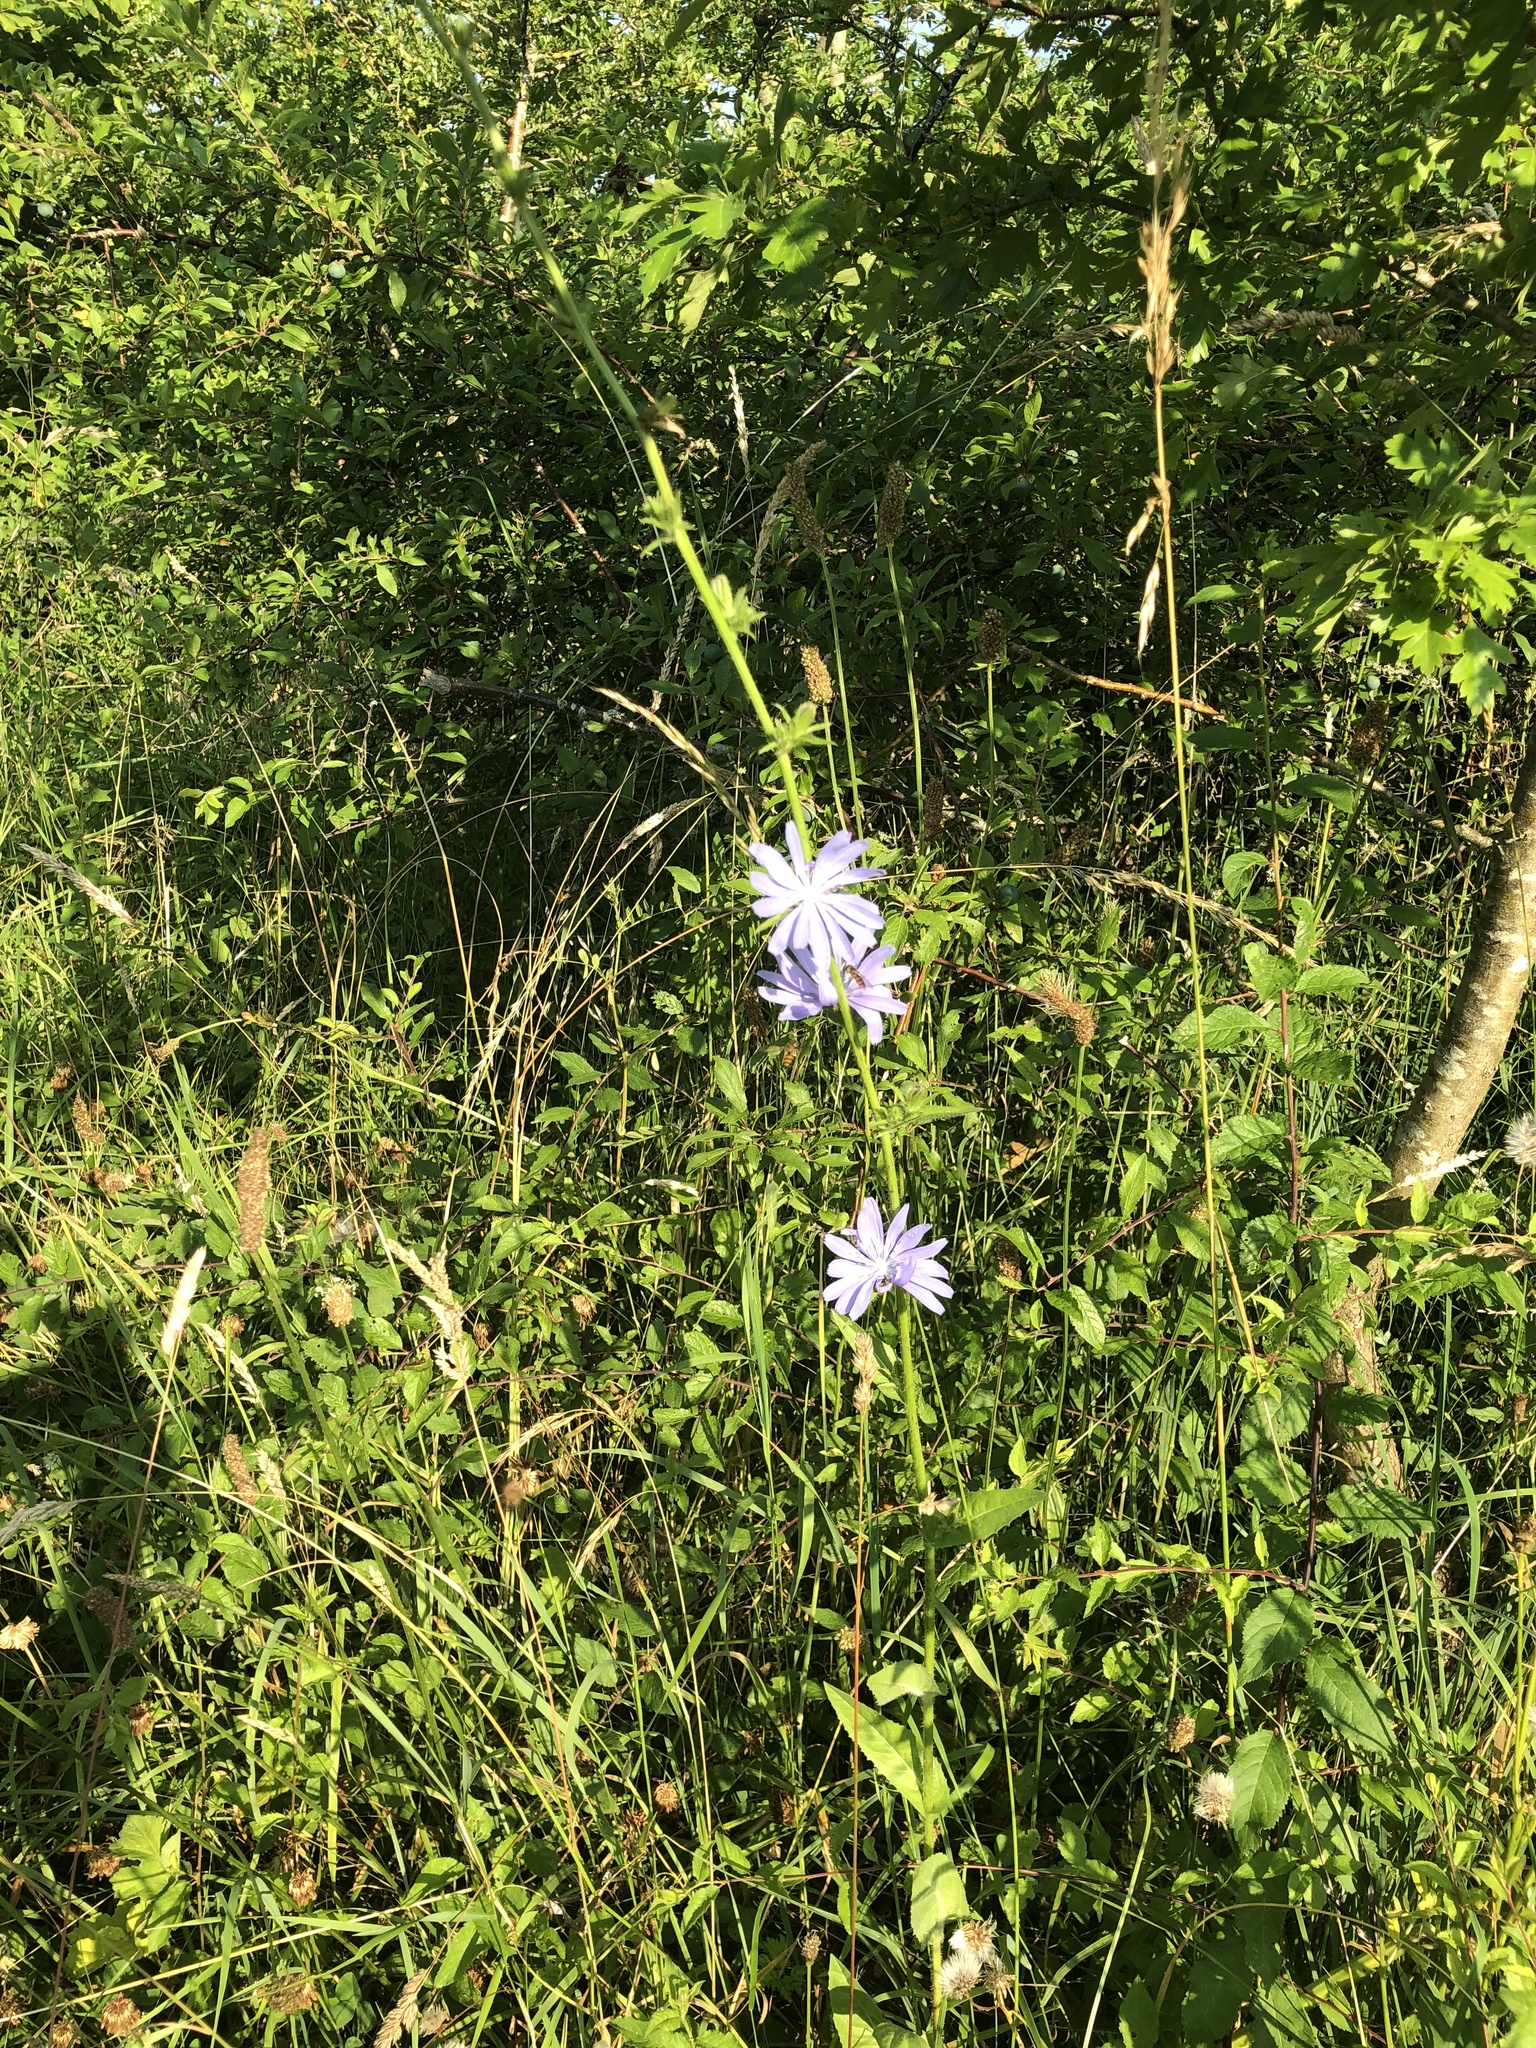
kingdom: Plantae
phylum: Tracheophyta
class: Magnoliopsida
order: Asterales
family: Asteraceae
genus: Cichorium
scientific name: Cichorium intybus
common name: Chicory
